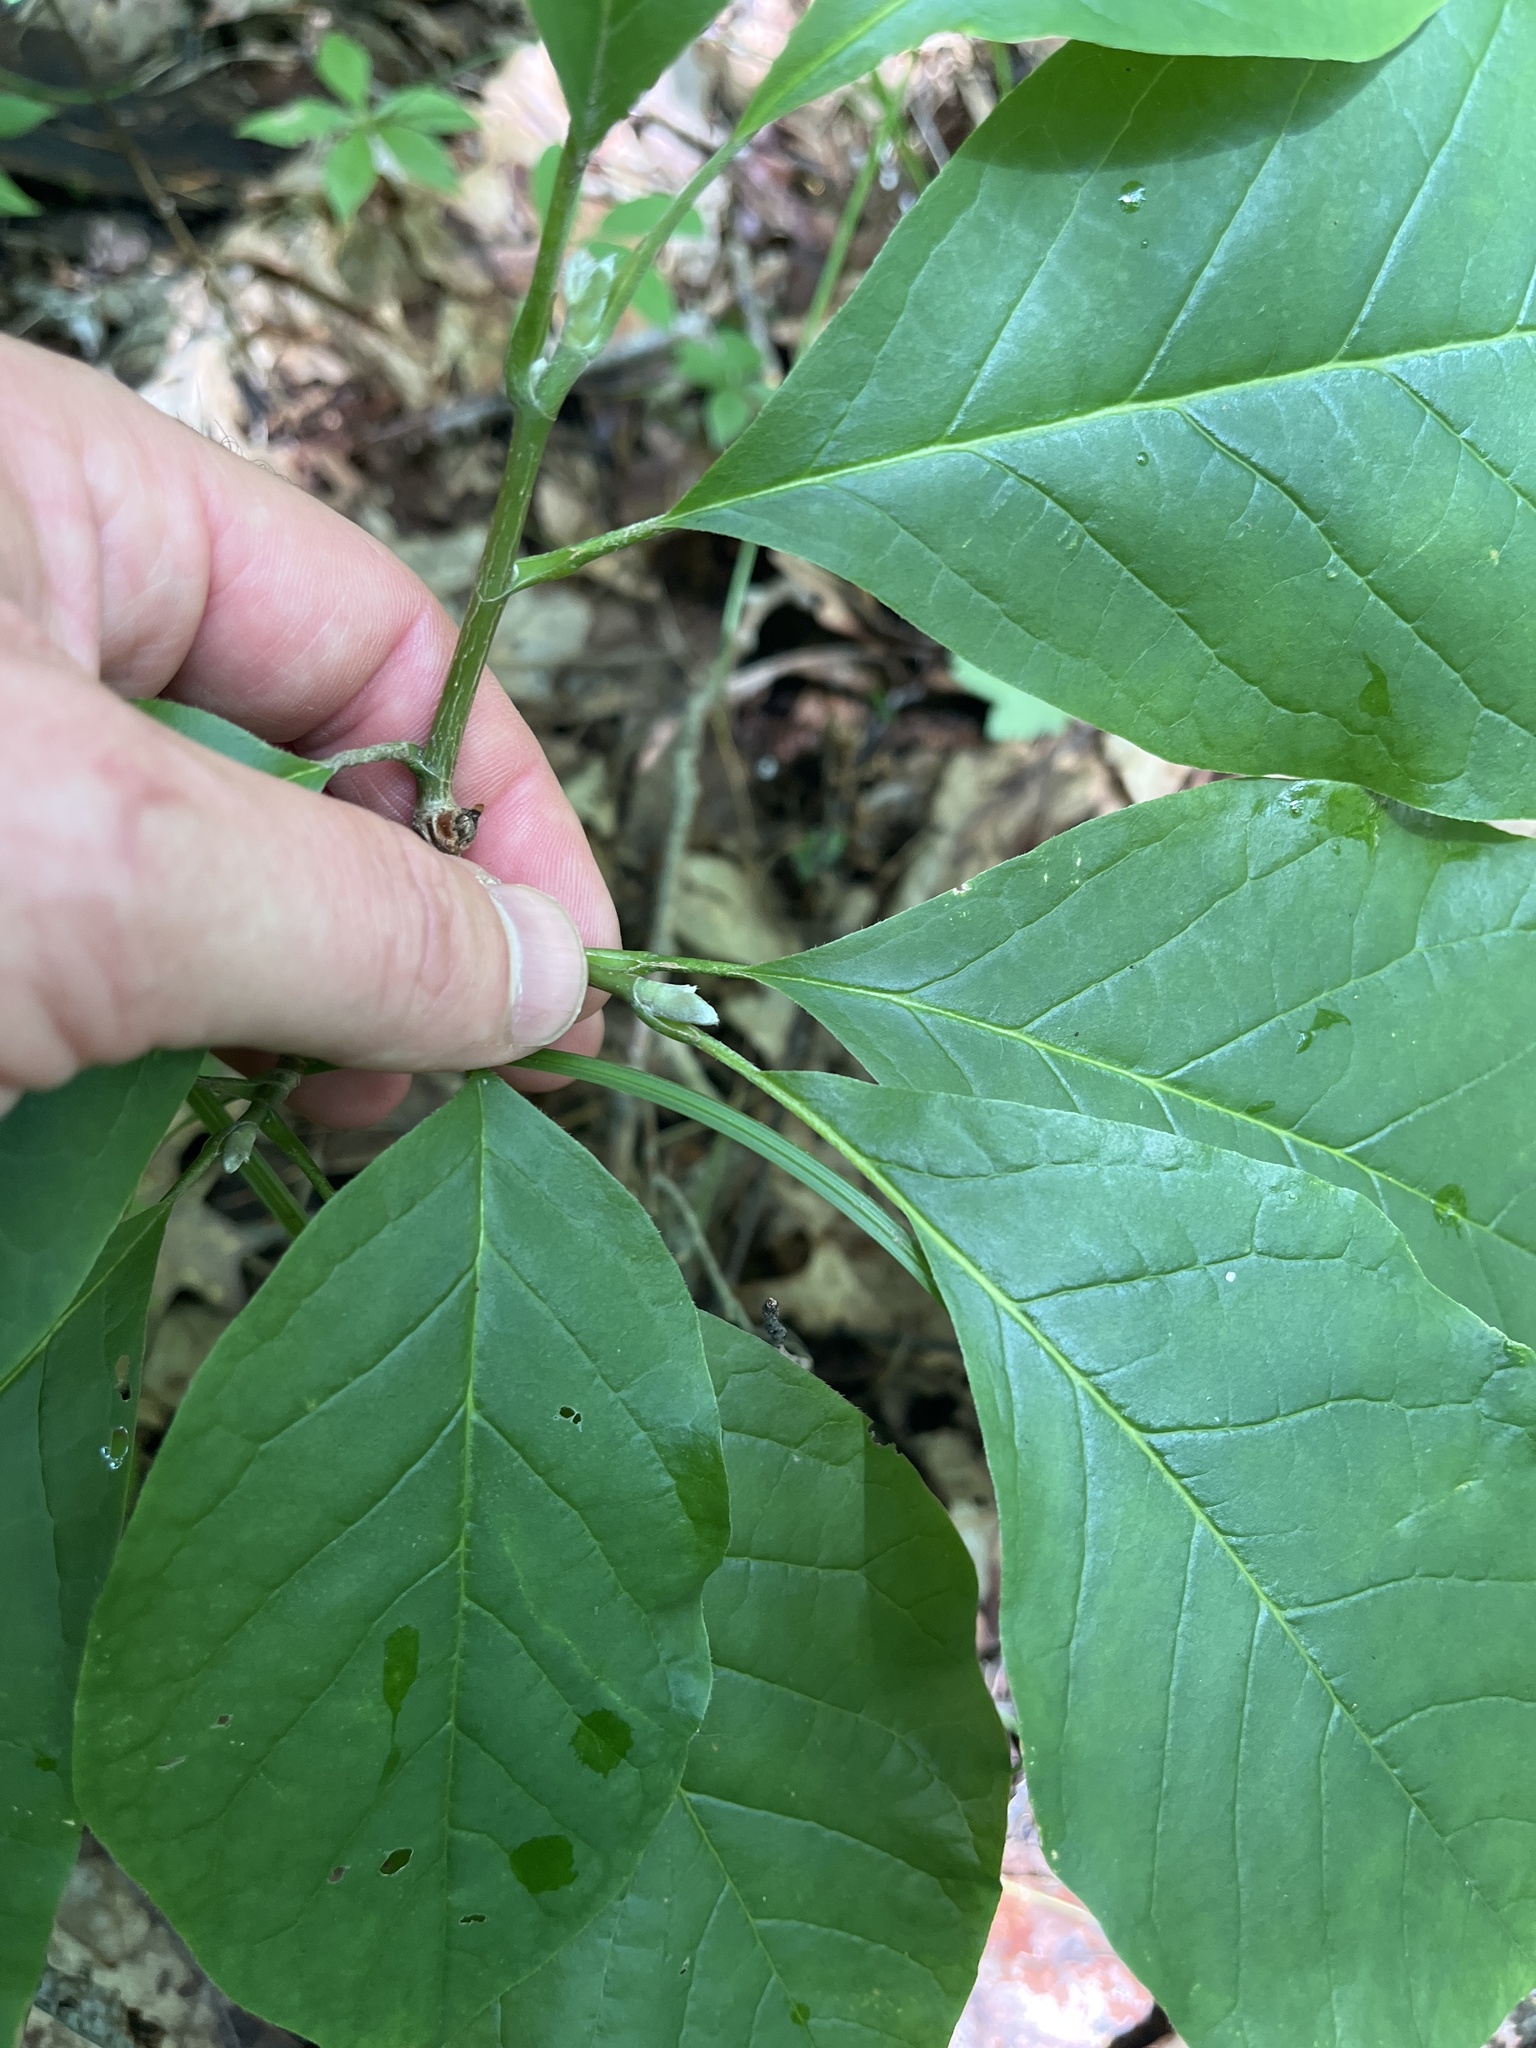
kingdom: Plantae
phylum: Tracheophyta
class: Magnoliopsida
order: Magnoliales
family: Magnoliaceae
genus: Magnolia
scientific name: Magnolia acuminata
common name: Cucumber magnolia
